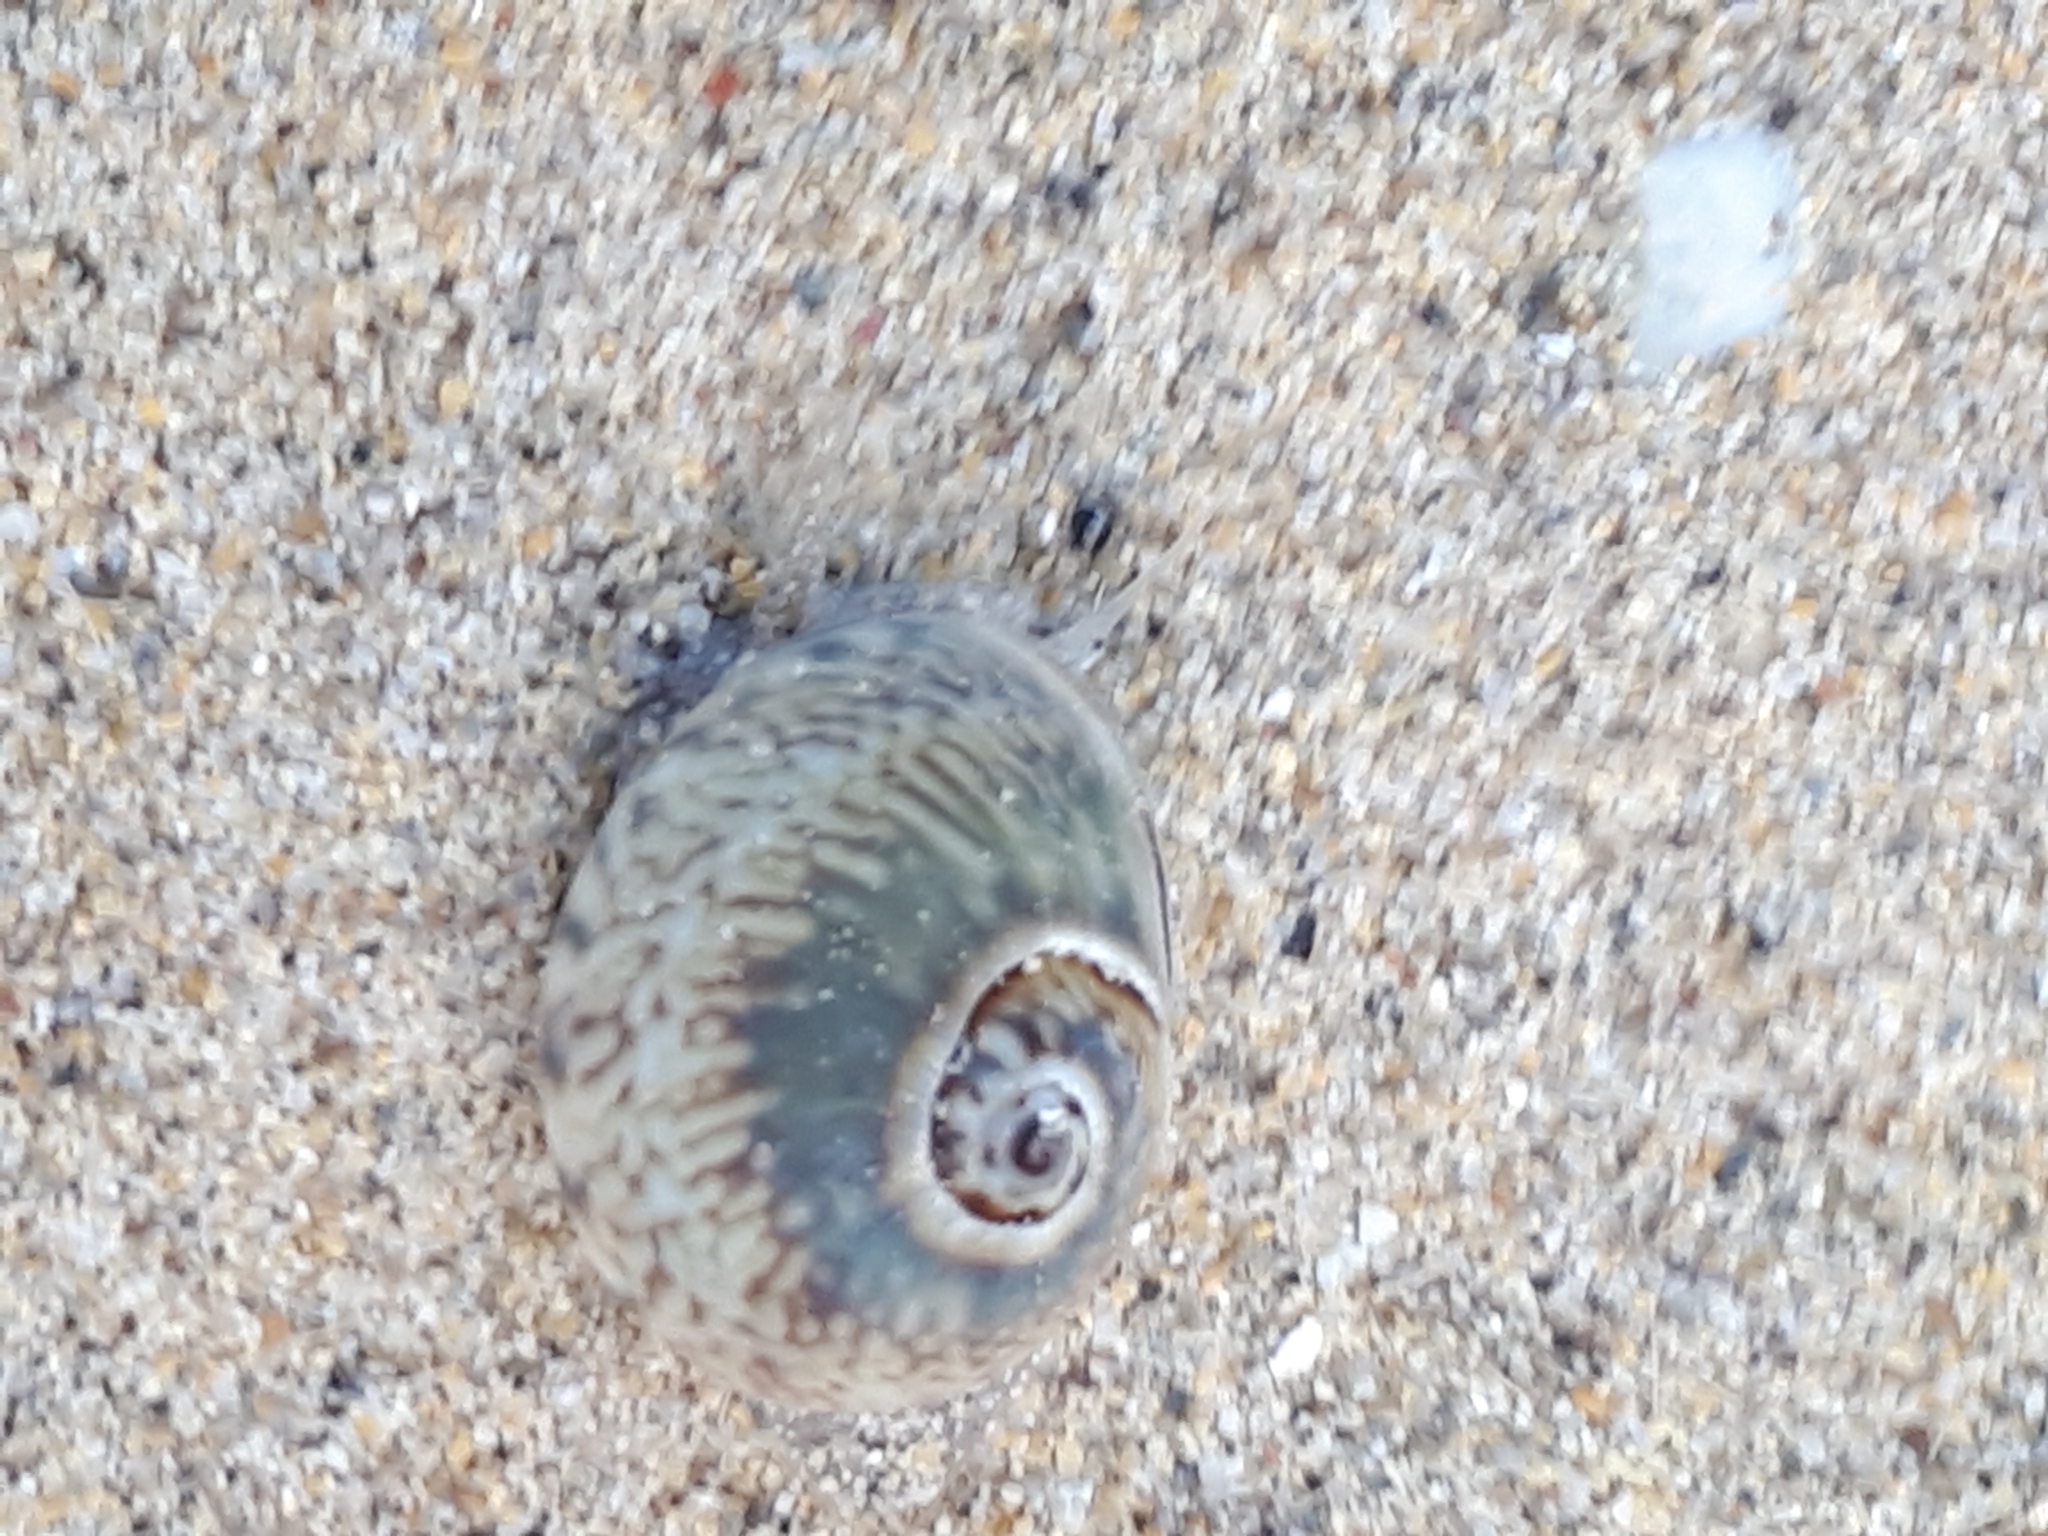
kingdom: Animalia
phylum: Mollusca
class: Gastropoda
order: Neogastropoda
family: Nassariidae
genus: Tritia
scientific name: Tritia neritea
